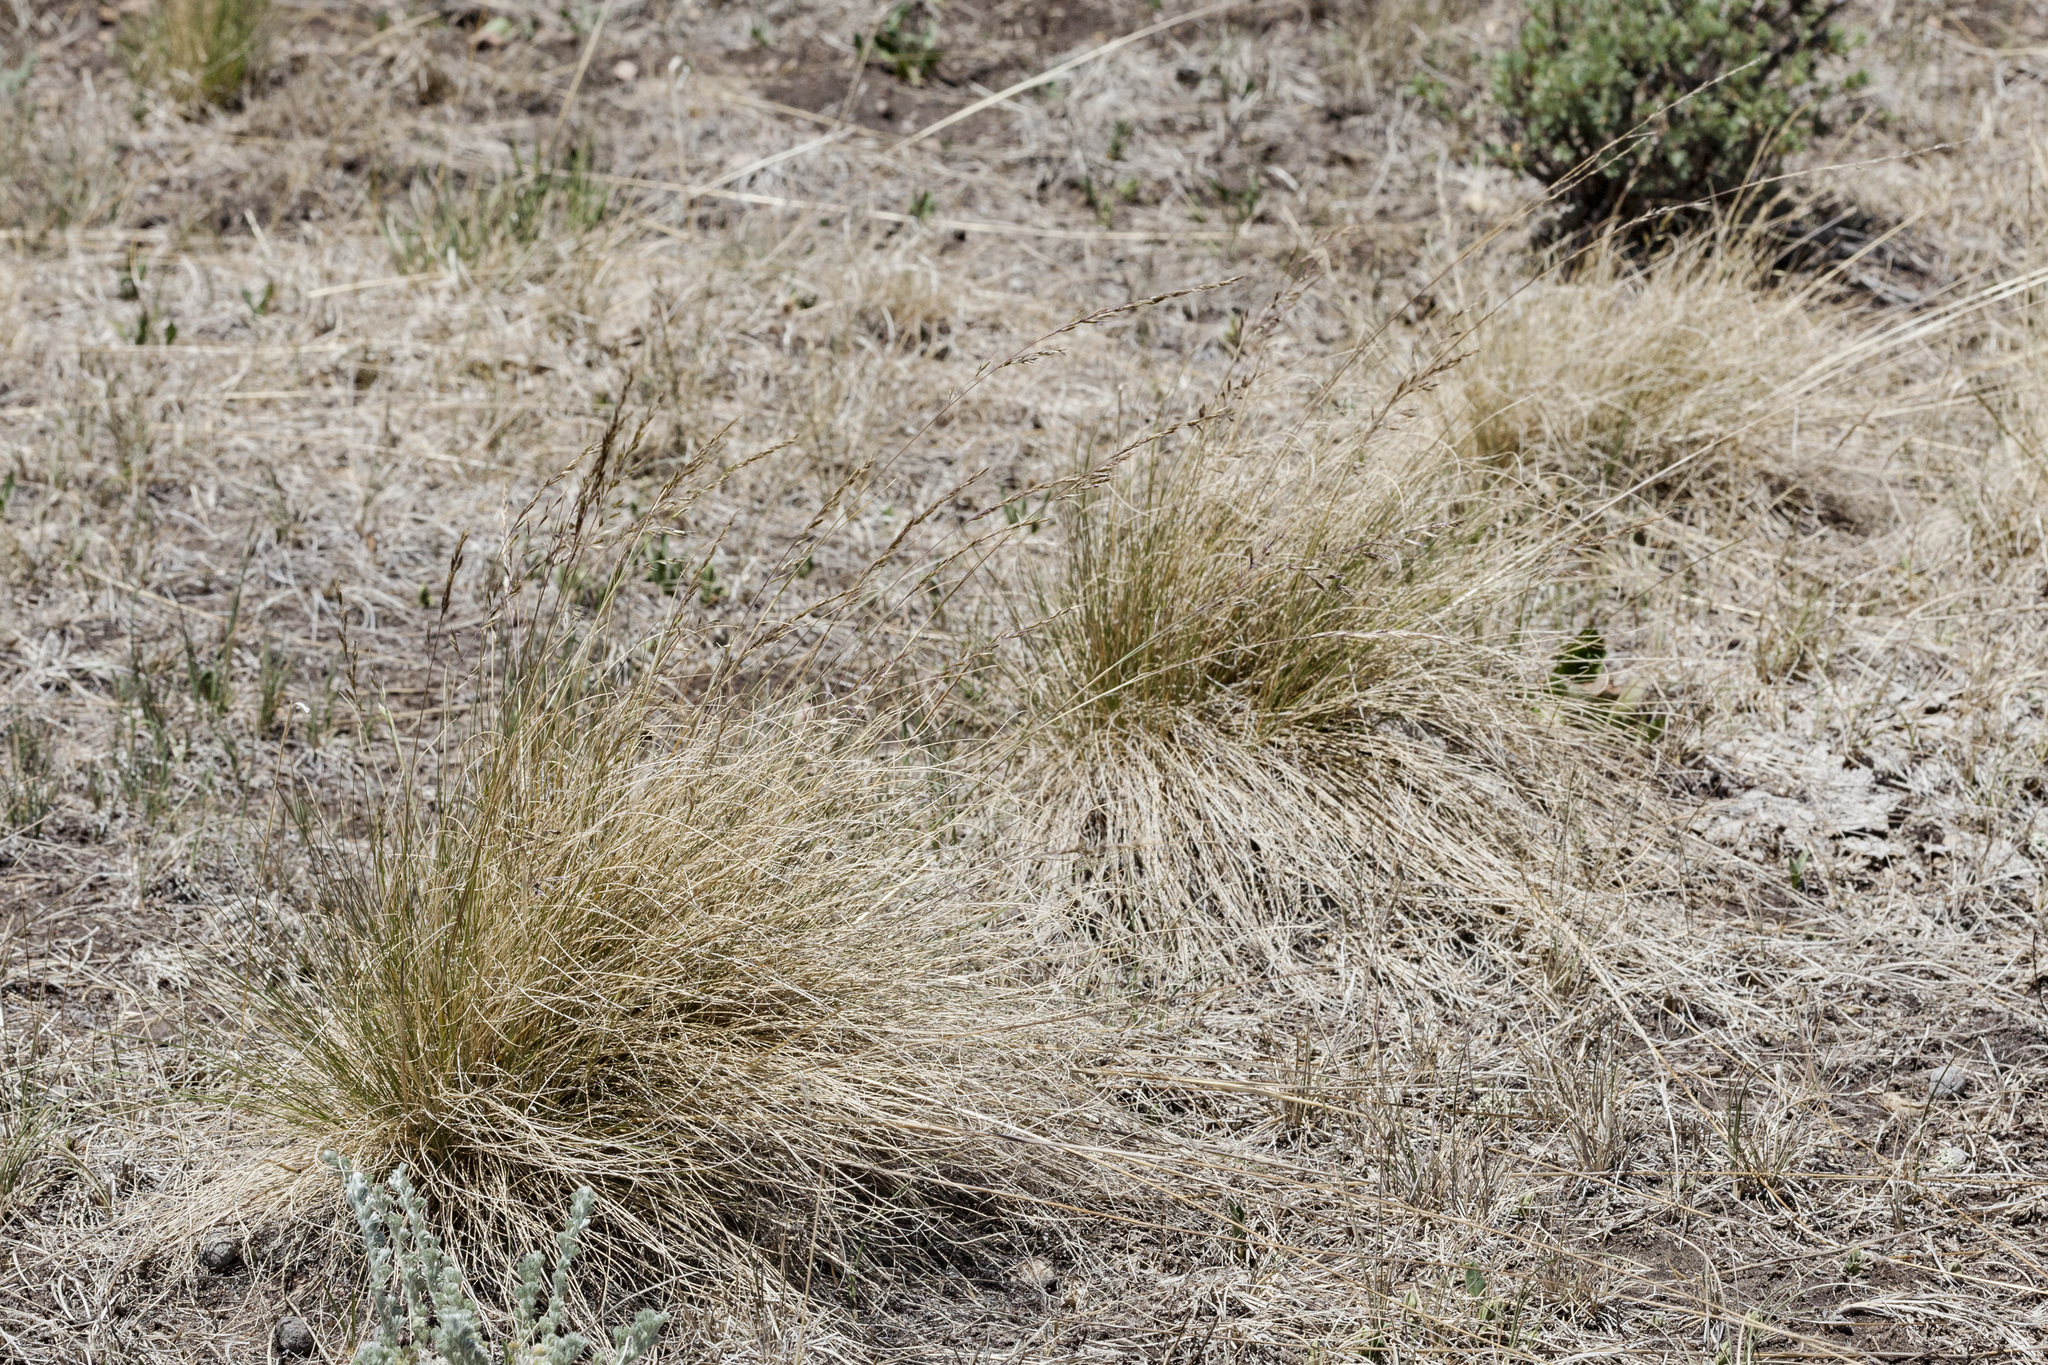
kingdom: Plantae
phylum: Tracheophyta
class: Liliopsida
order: Poales
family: Poaceae
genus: Festuca
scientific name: Festuca idahoensis
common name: Idaho fescue
